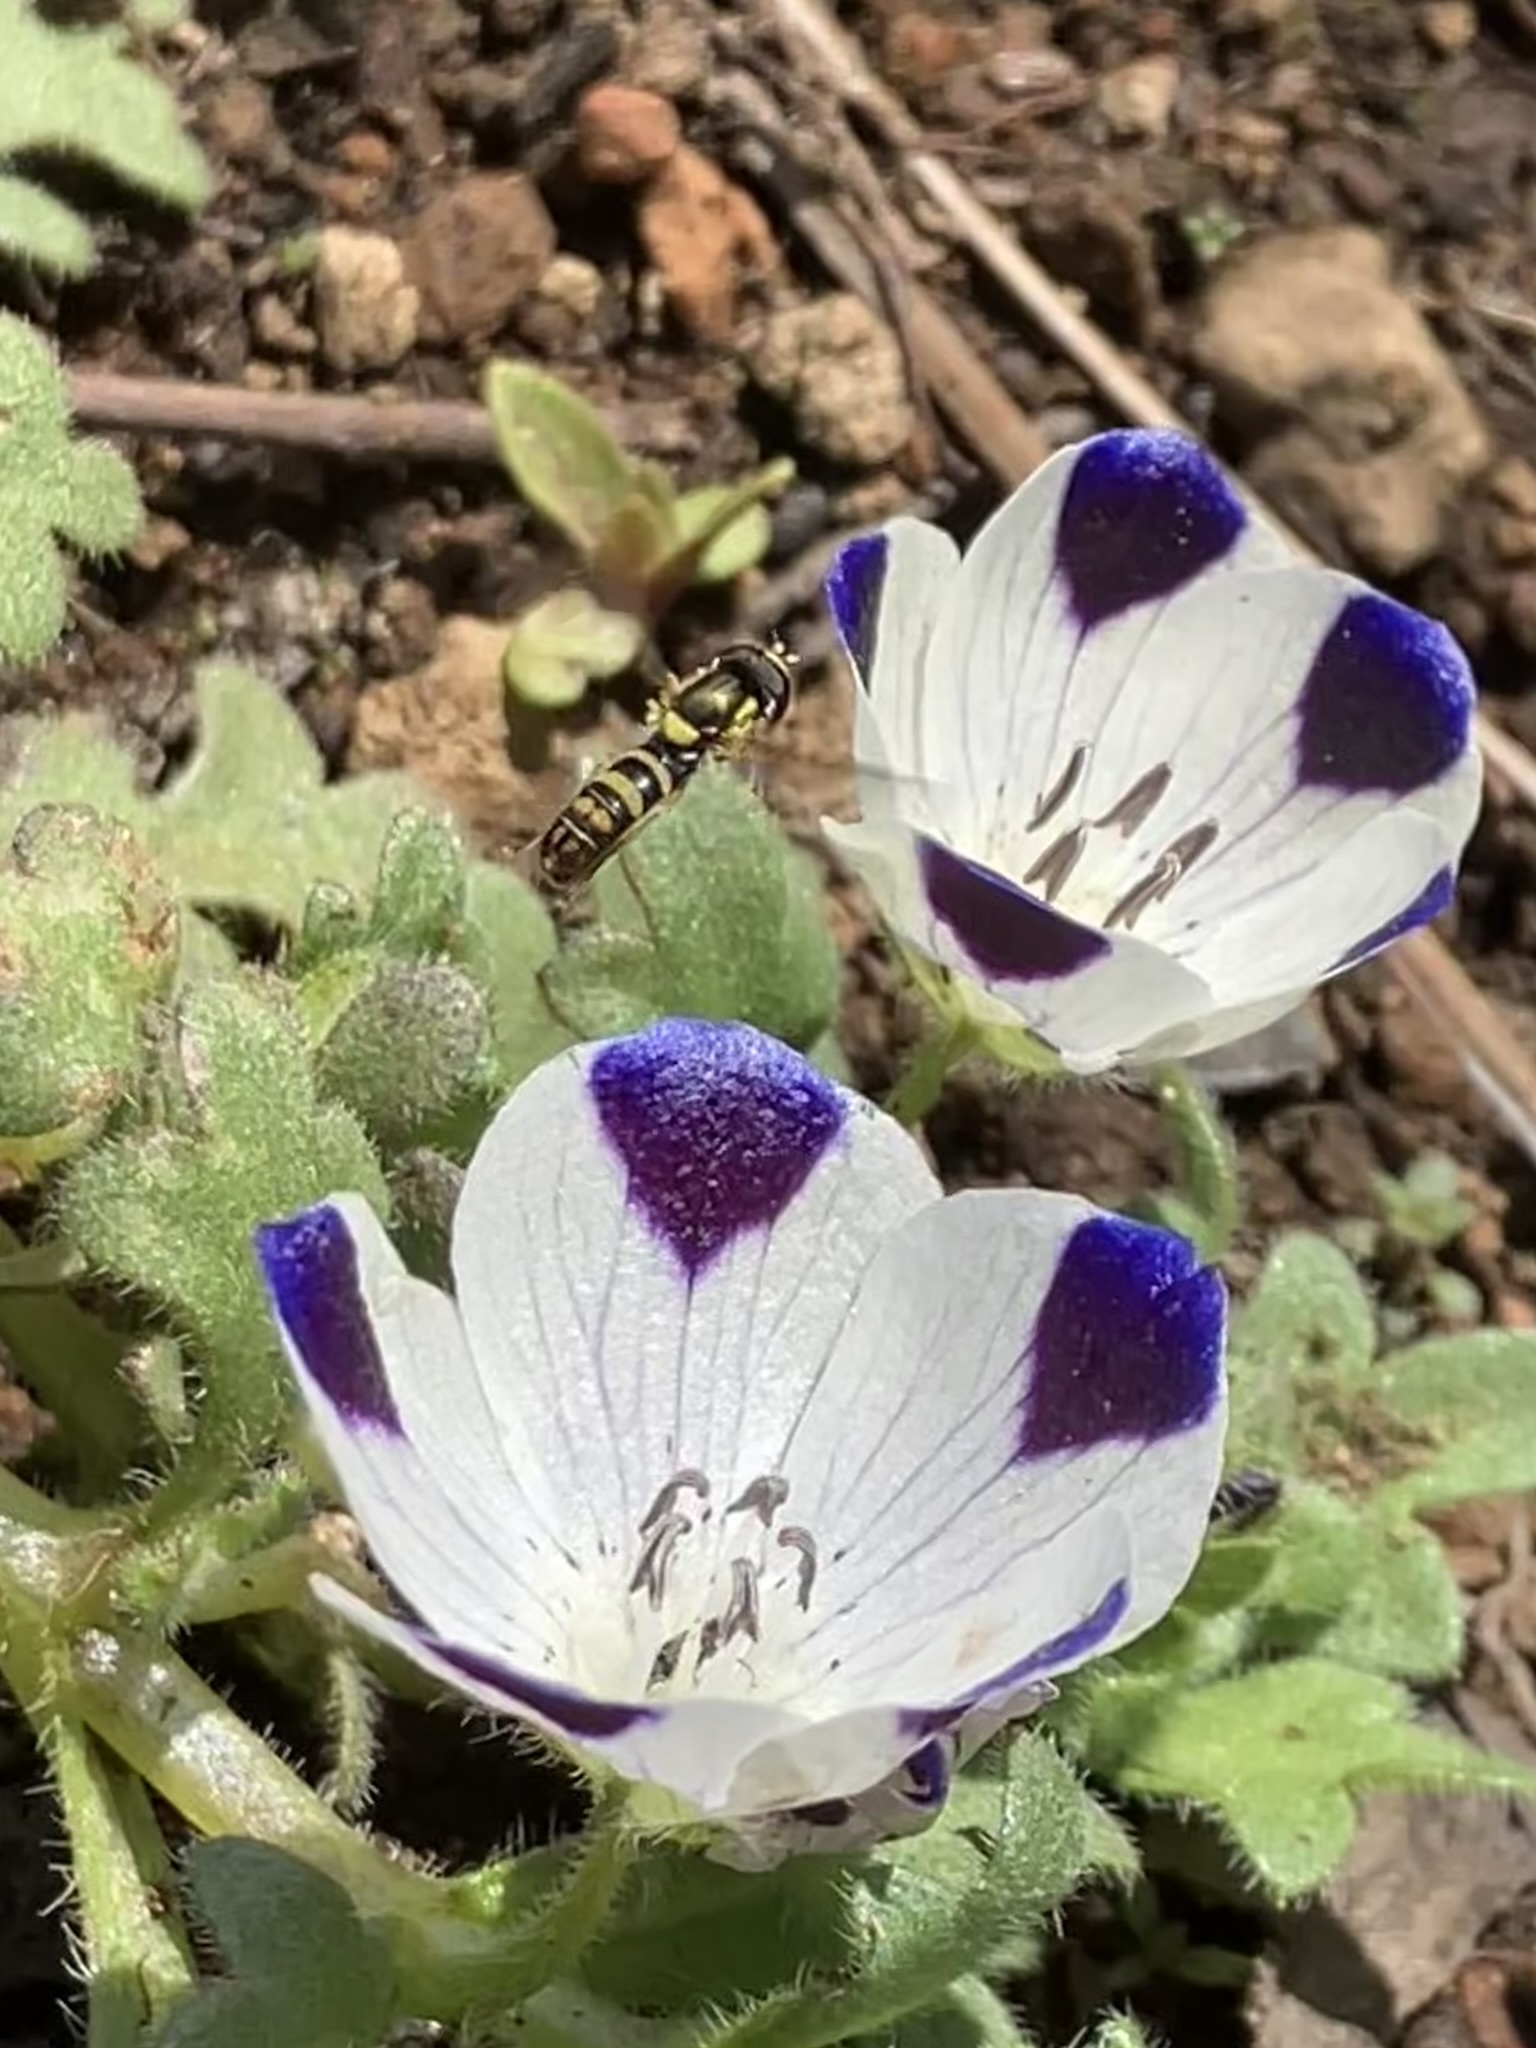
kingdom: Plantae
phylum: Tracheophyta
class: Magnoliopsida
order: Boraginales
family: Hydrophyllaceae
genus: Nemophila
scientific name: Nemophila maculata
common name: Fivespot
